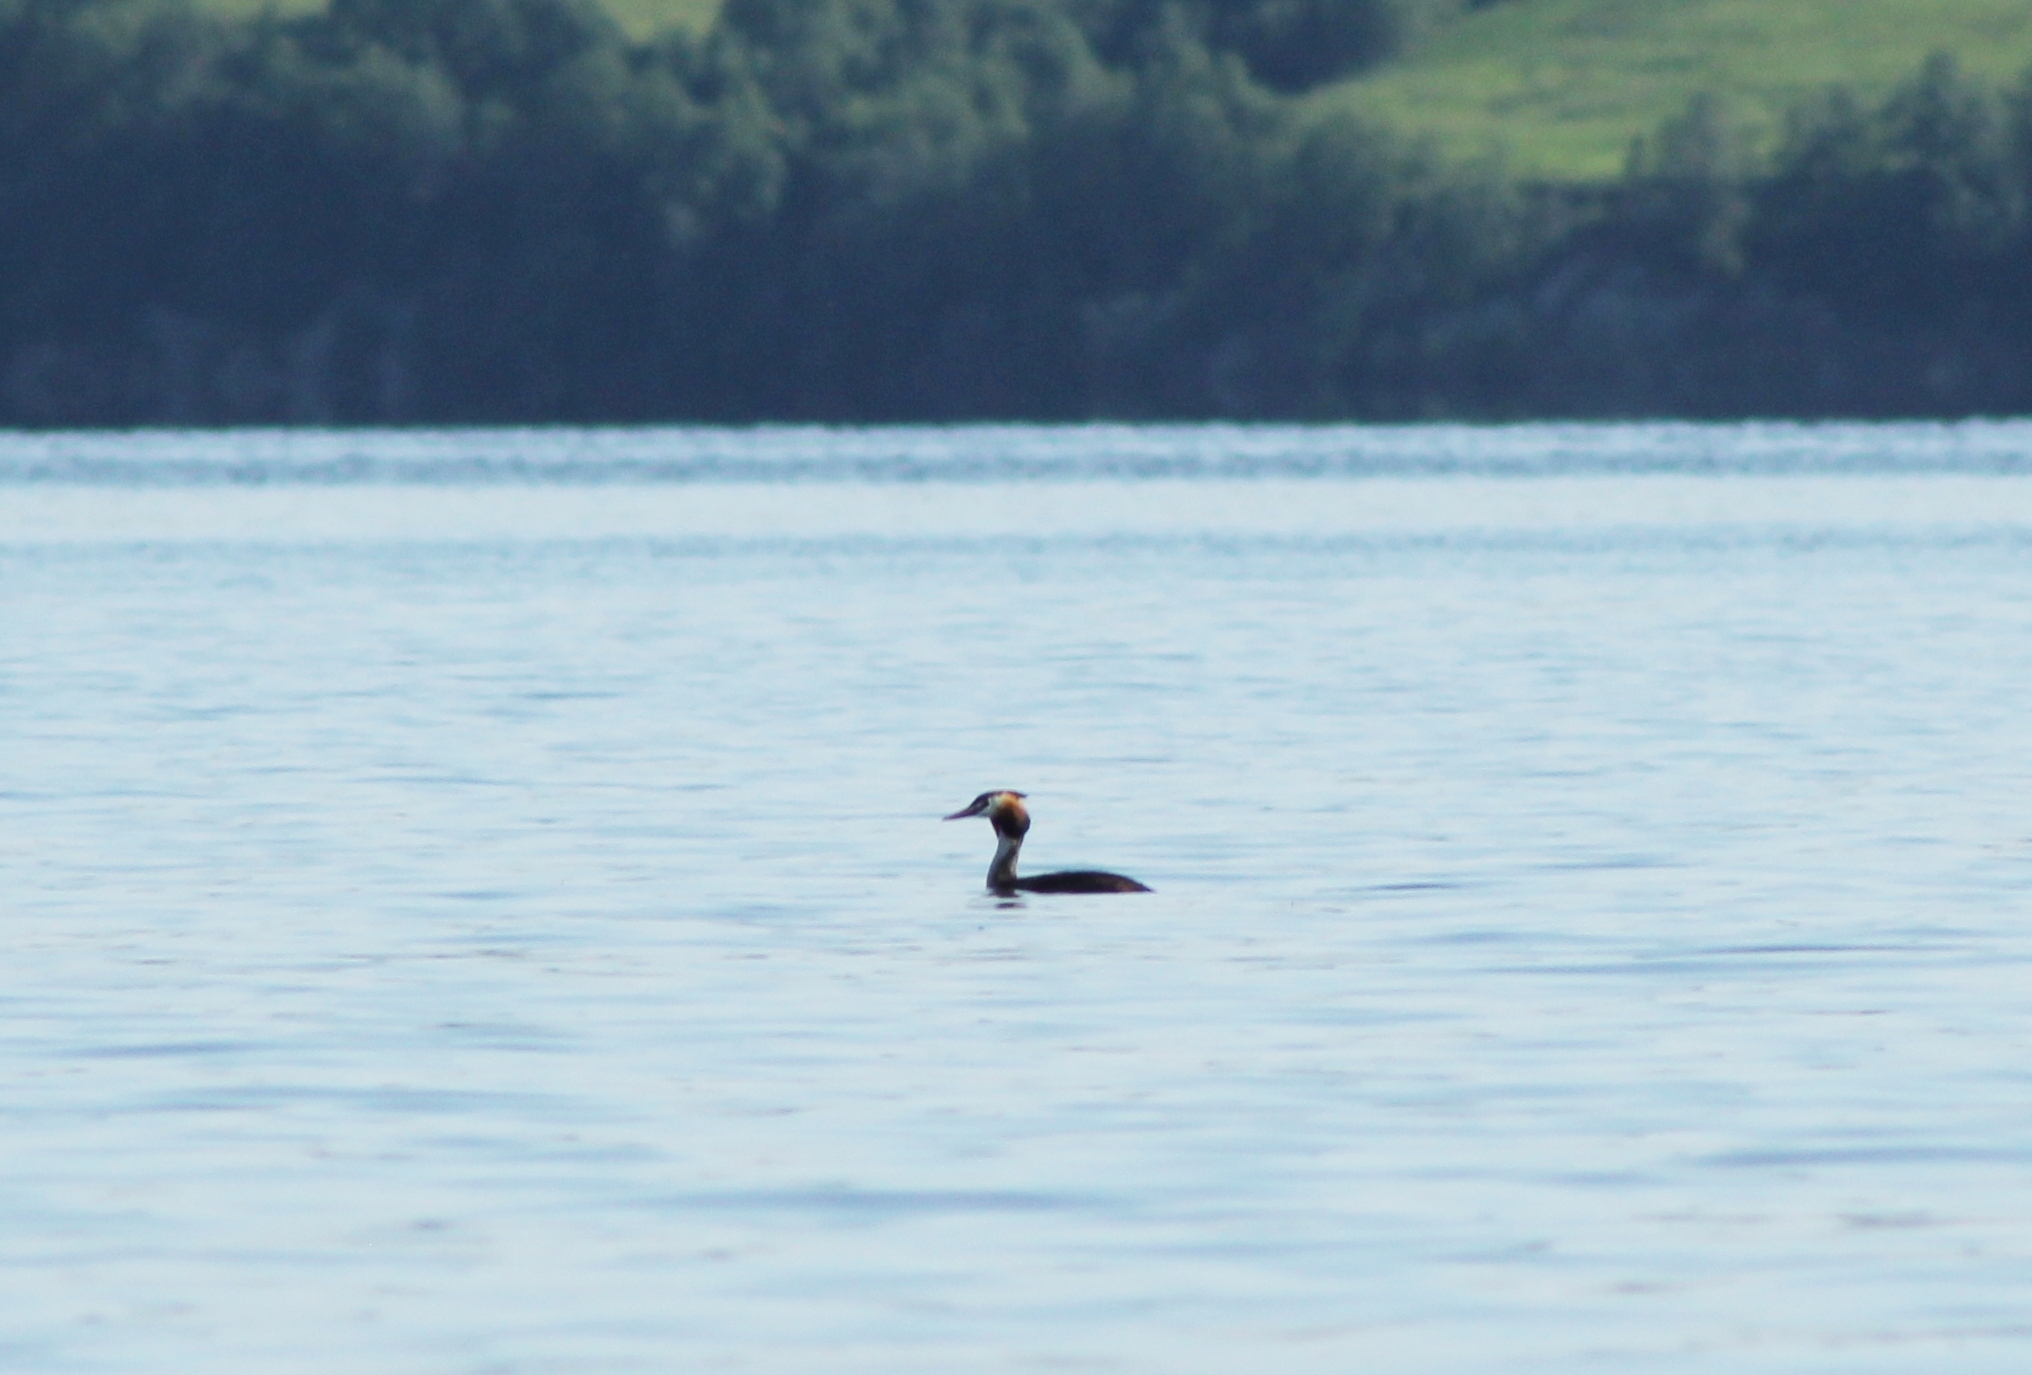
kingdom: Animalia
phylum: Chordata
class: Aves
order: Podicipediformes
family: Podicipedidae
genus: Podiceps
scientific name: Podiceps cristatus
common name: Great crested grebe
